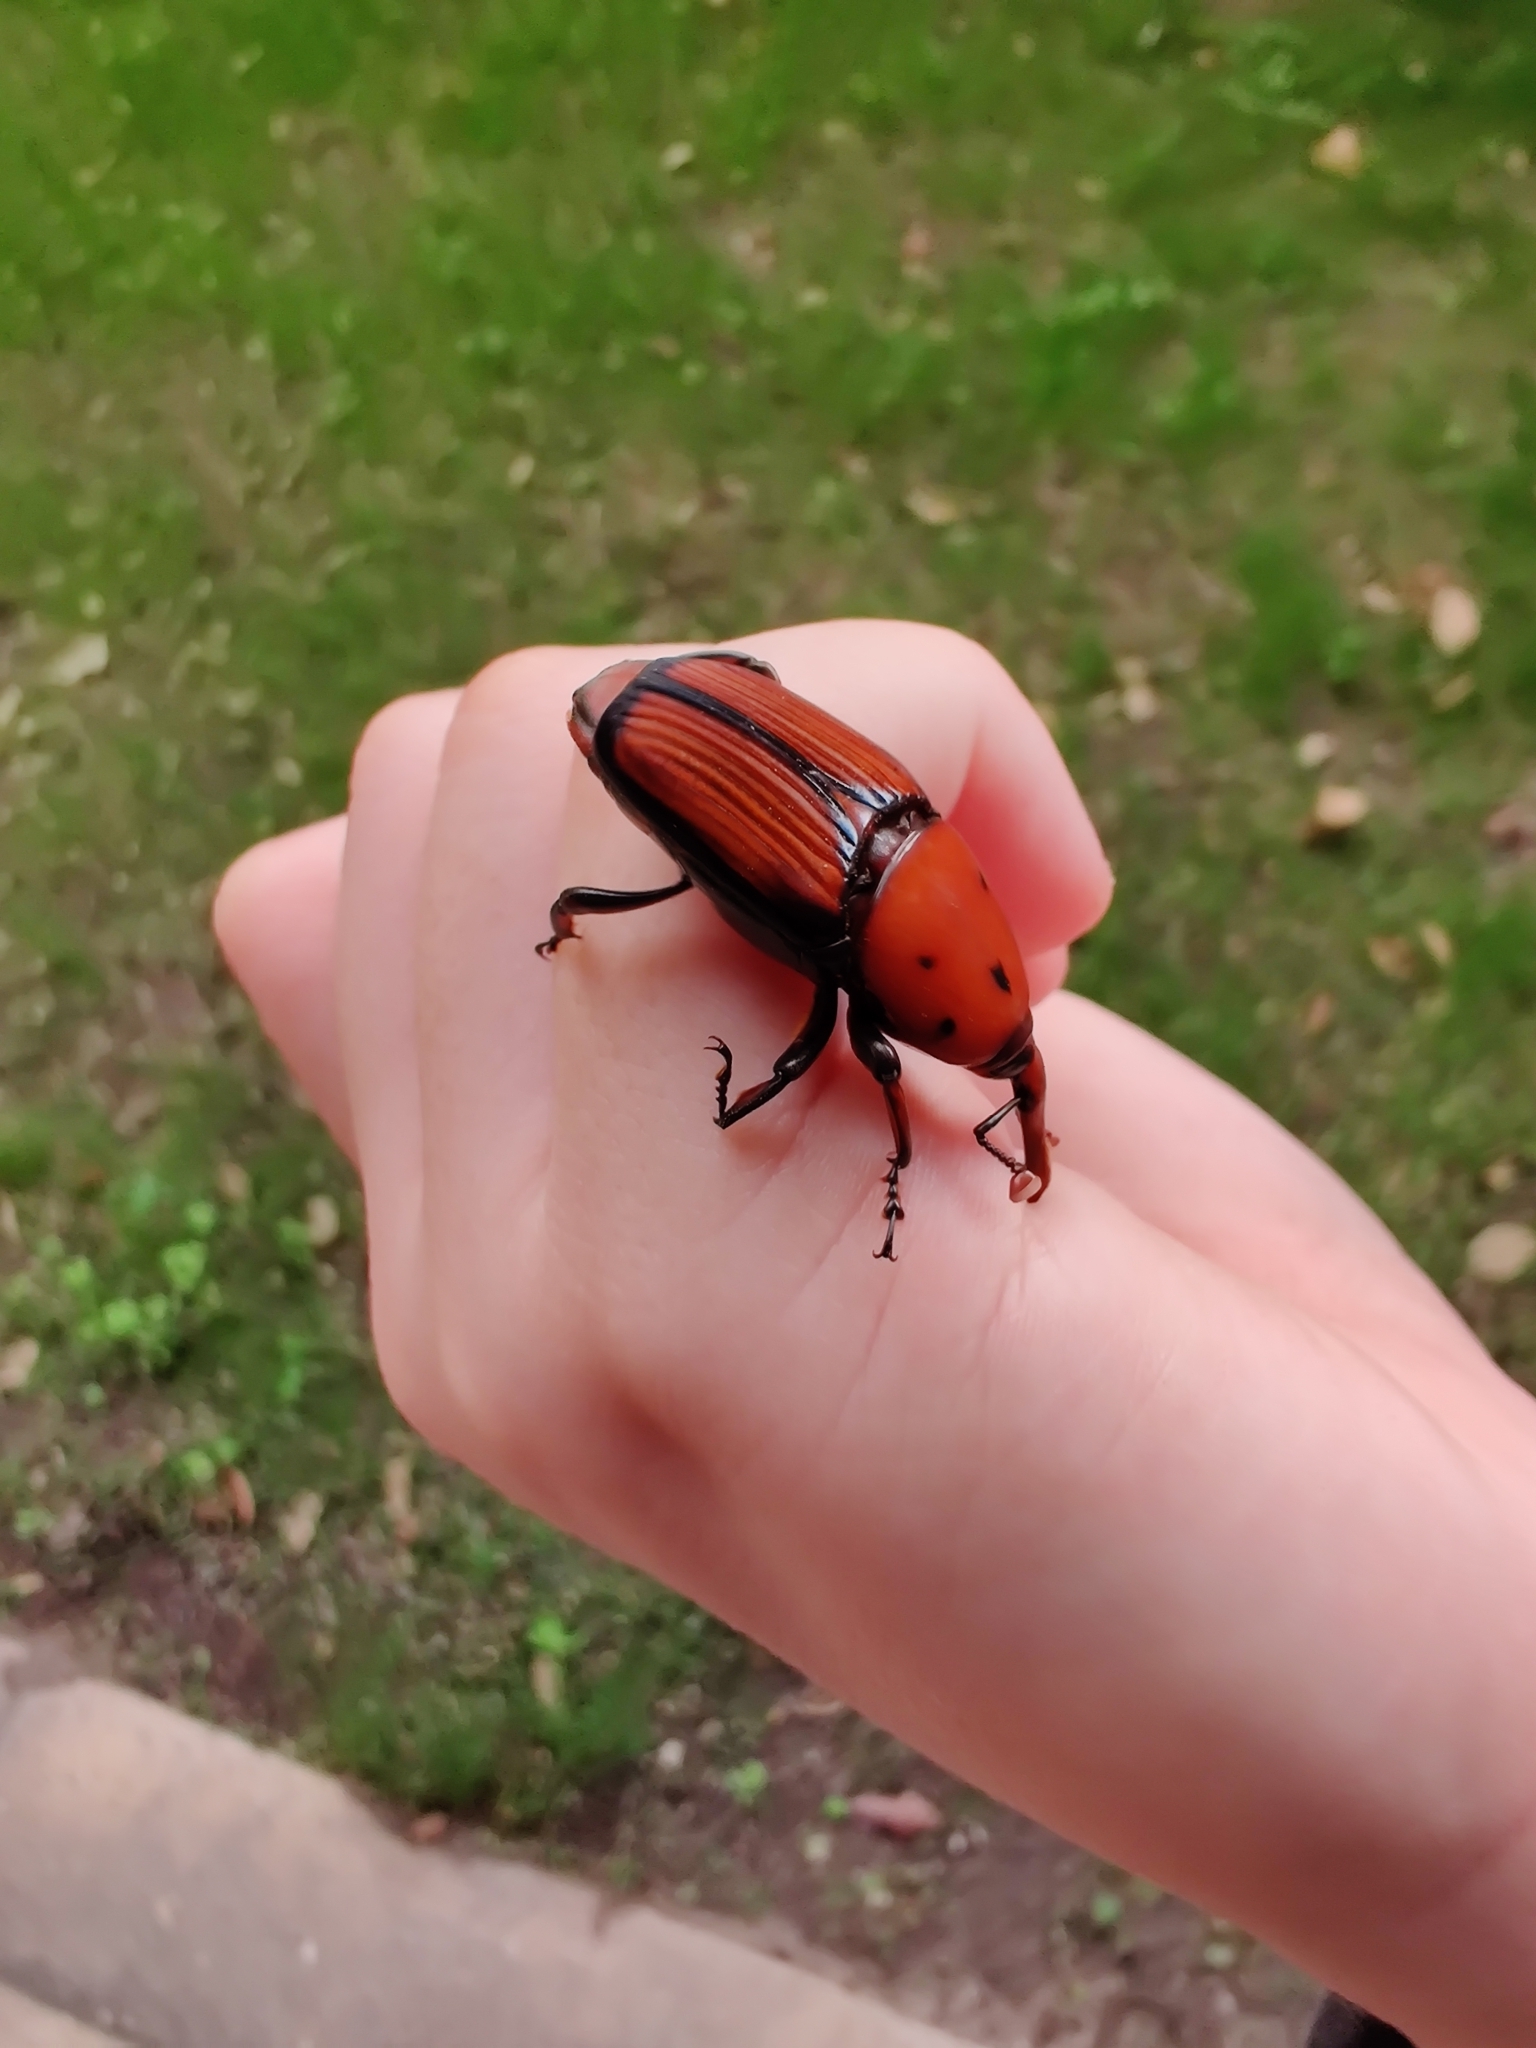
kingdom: Animalia
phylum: Arthropoda
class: Insecta
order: Coleoptera
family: Dryophthoridae
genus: Rhynchophorus
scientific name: Rhynchophorus ferrugineus
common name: Red palm weevil
